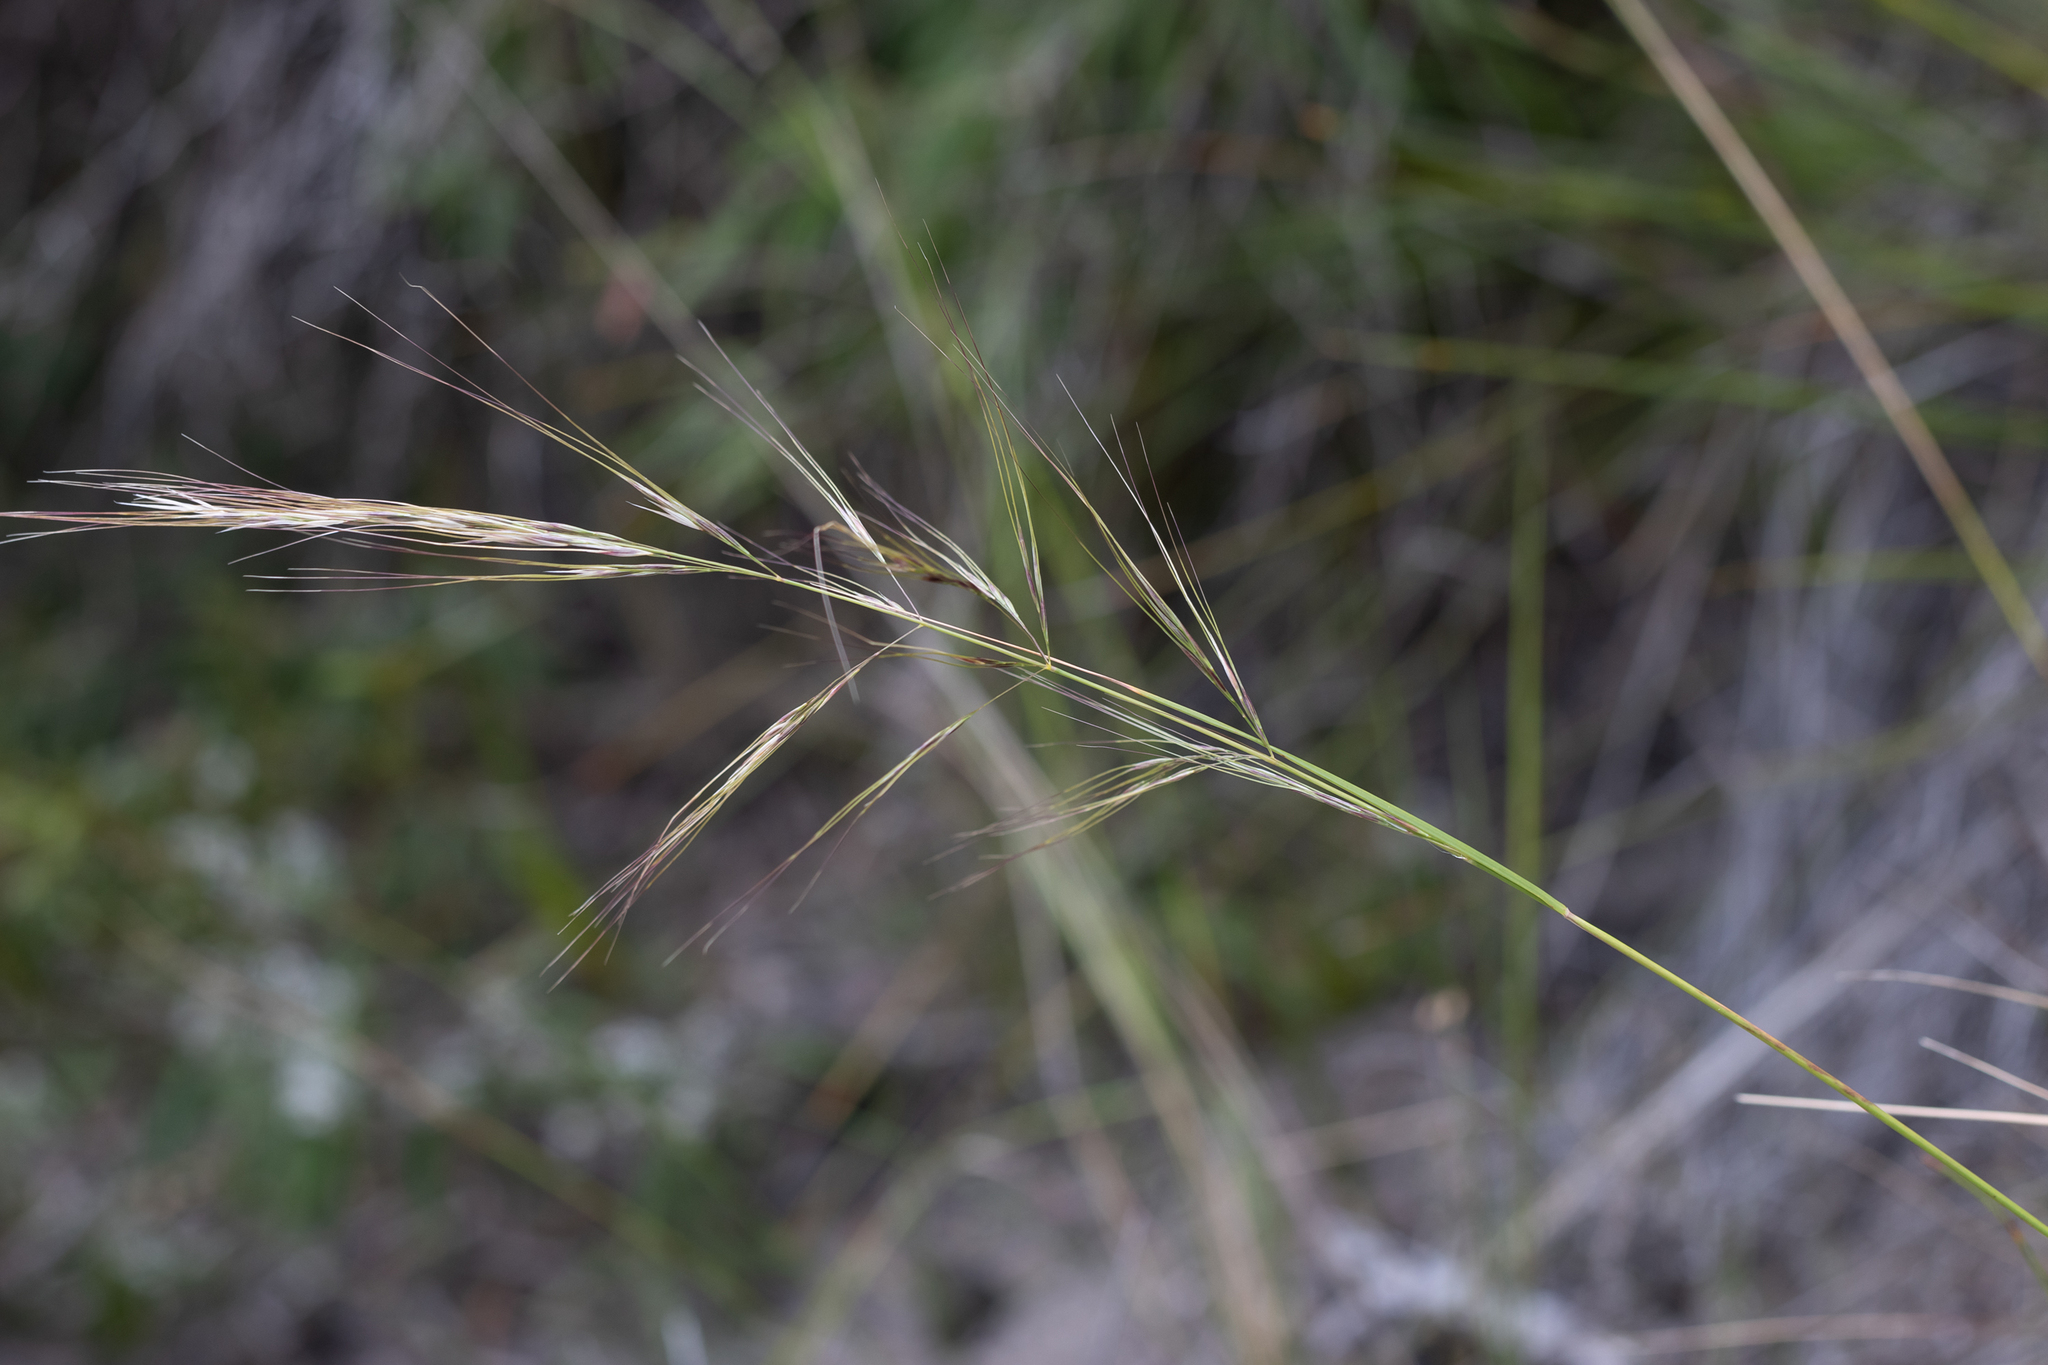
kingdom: Plantae
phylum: Tracheophyta
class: Liliopsida
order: Poales
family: Poaceae
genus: Austrostipa
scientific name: Austrostipa flavescens
